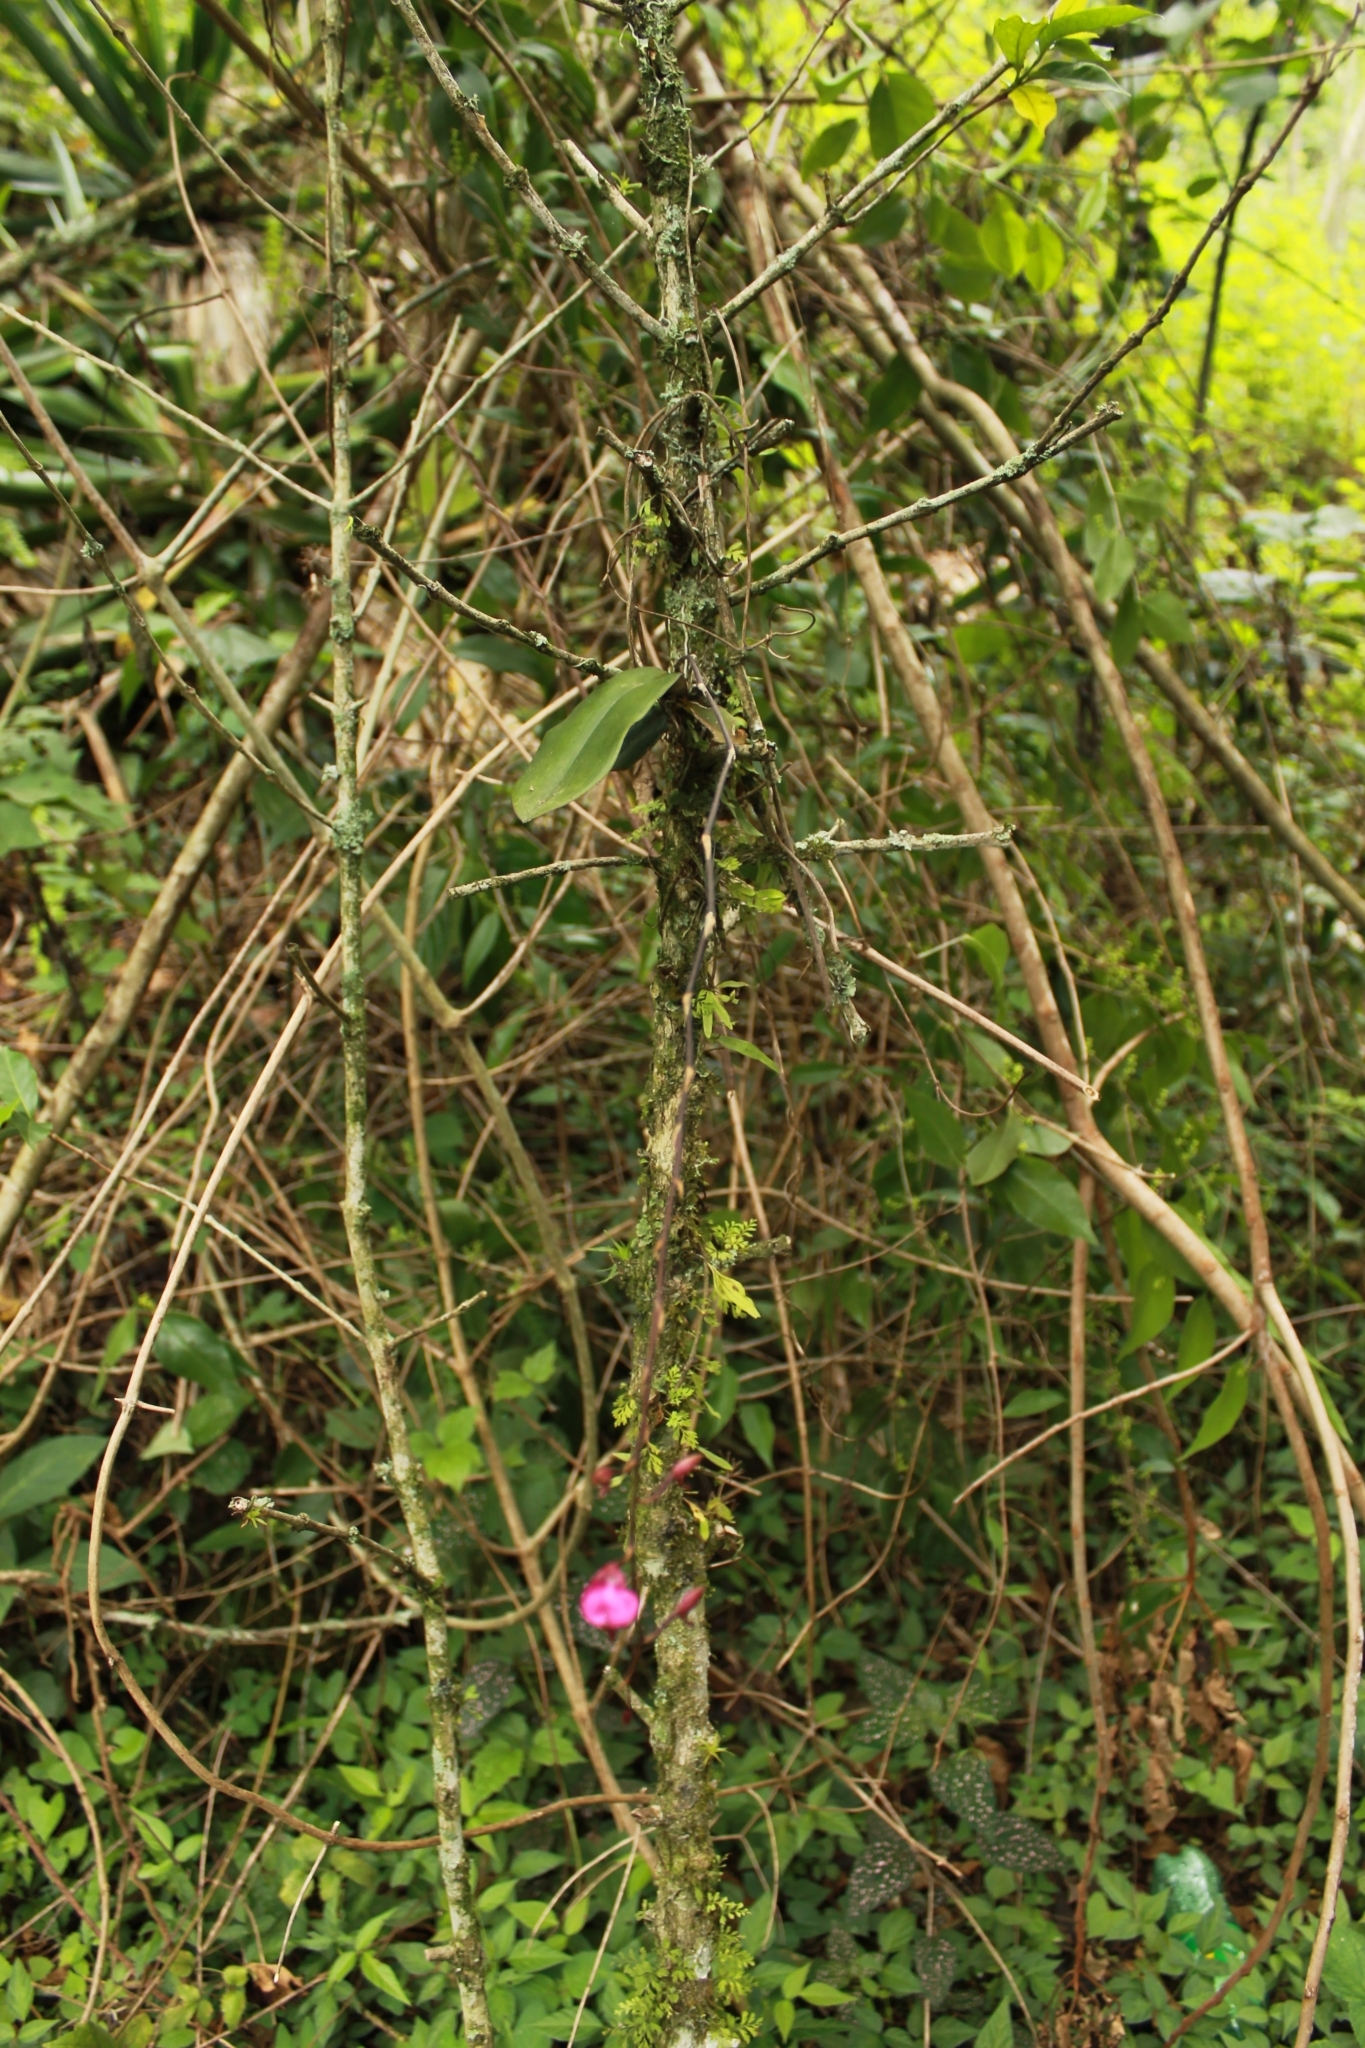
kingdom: Plantae
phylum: Tracheophyta
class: Liliopsida
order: Asparagales
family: Orchidaceae
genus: Comparettia
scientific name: Comparettia falcata
